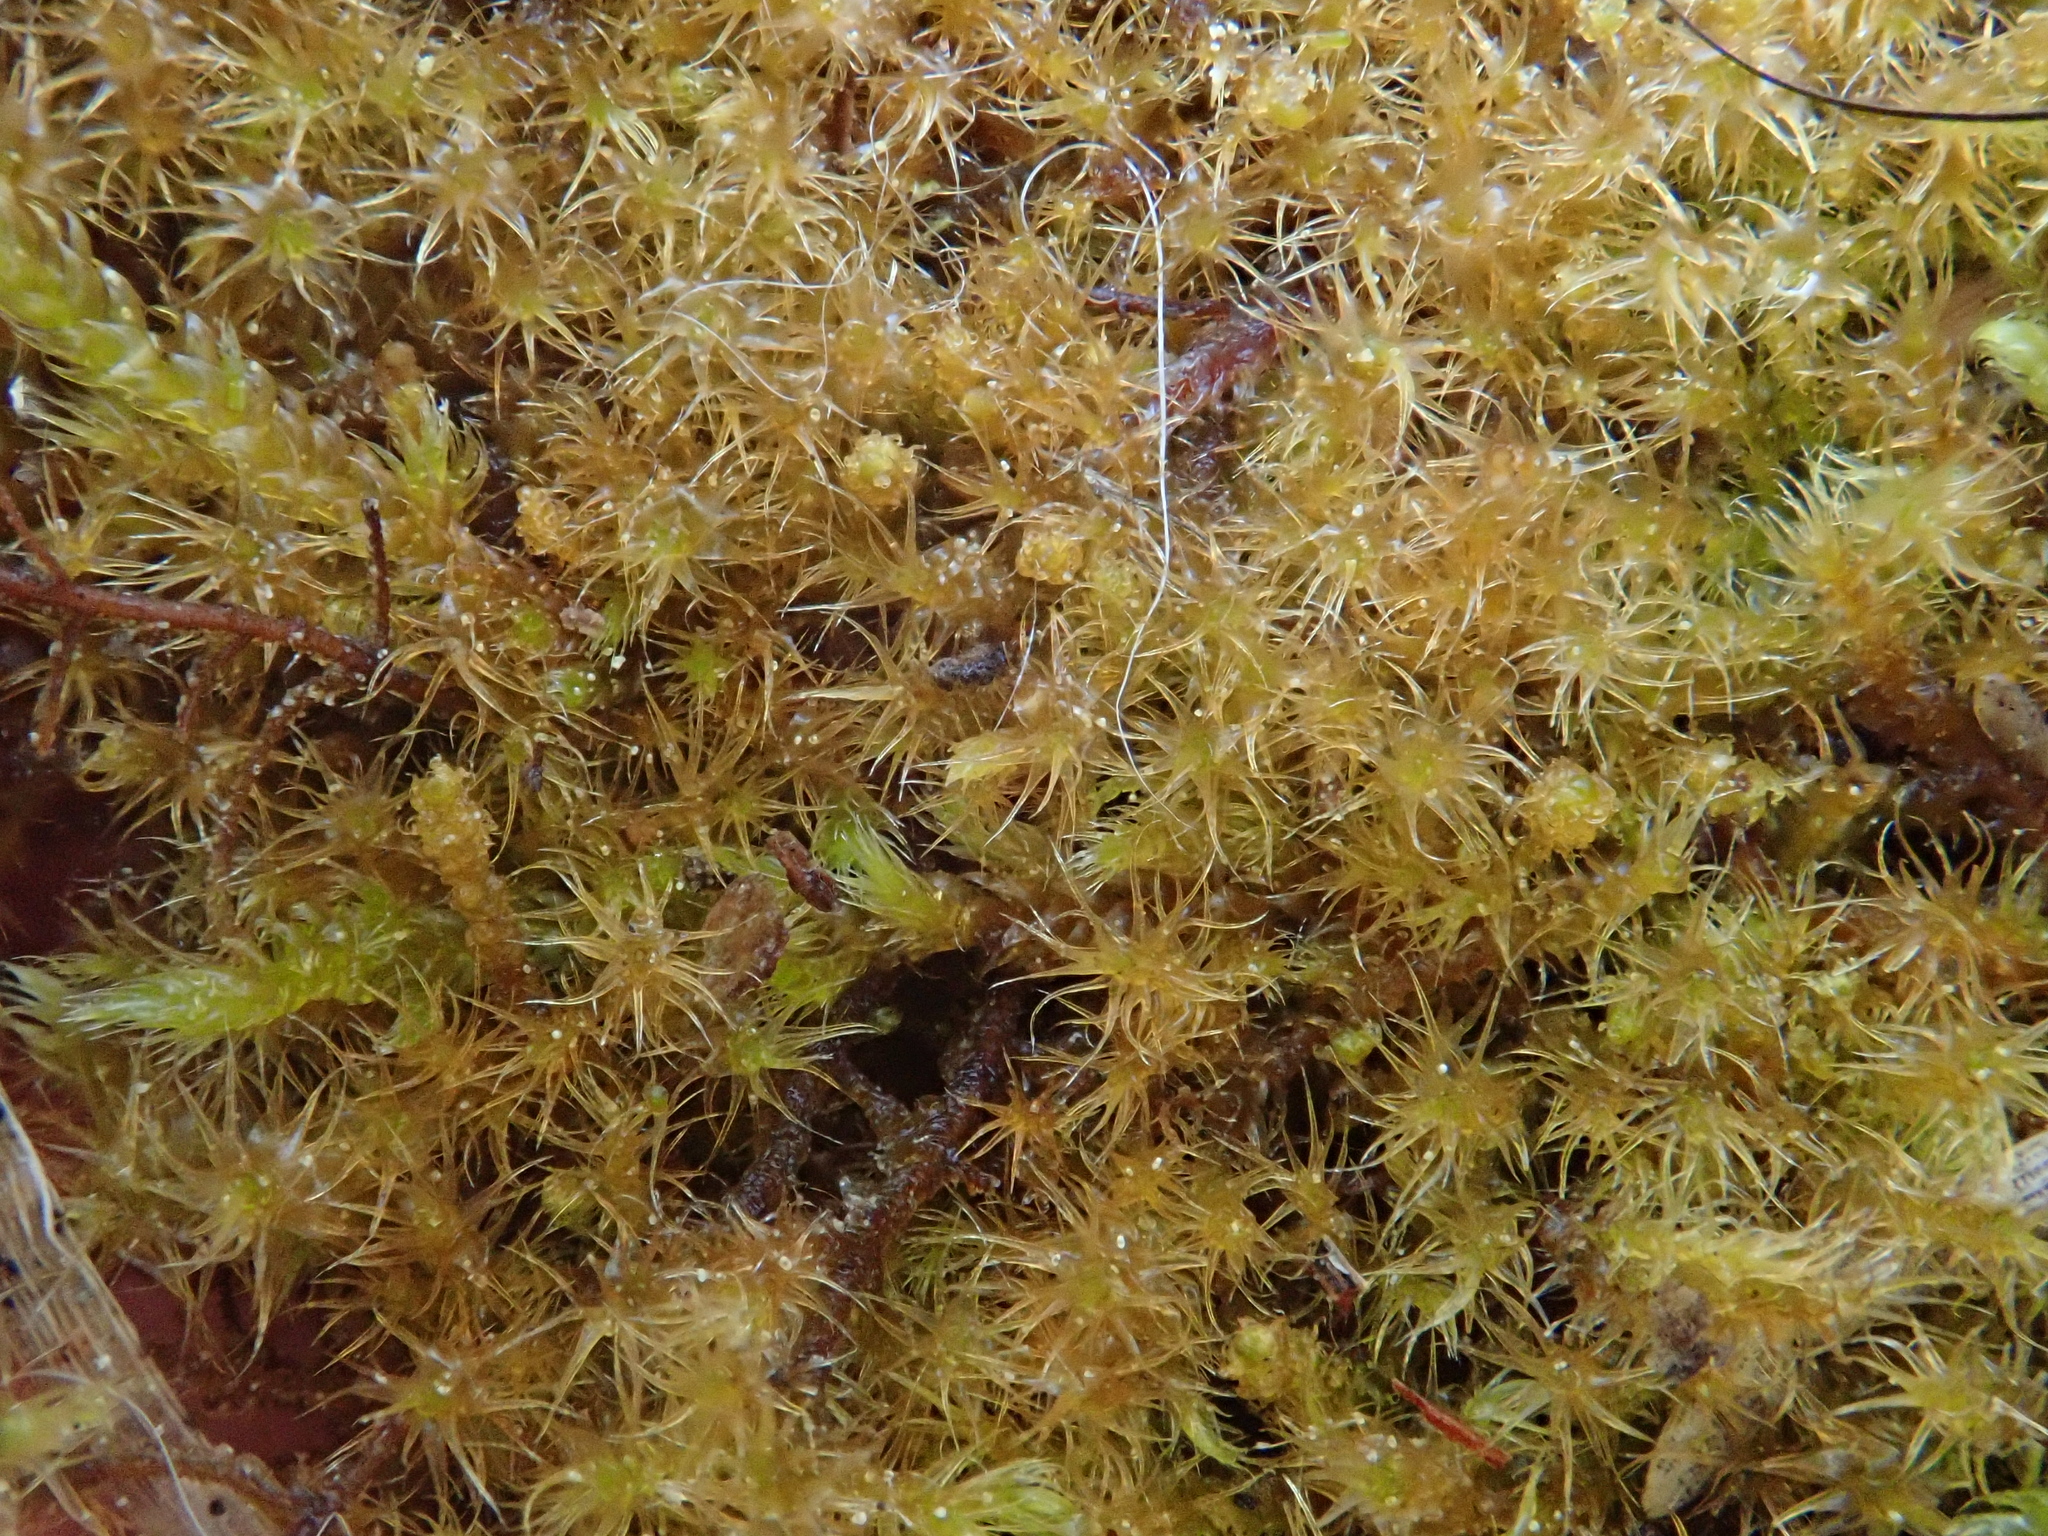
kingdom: Plantae
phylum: Bryophyta
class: Bryopsida
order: Hypnales
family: Amblystegiaceae
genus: Campylium
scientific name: Campylium chrysophyllum
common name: Goldenleaf campylium moss
